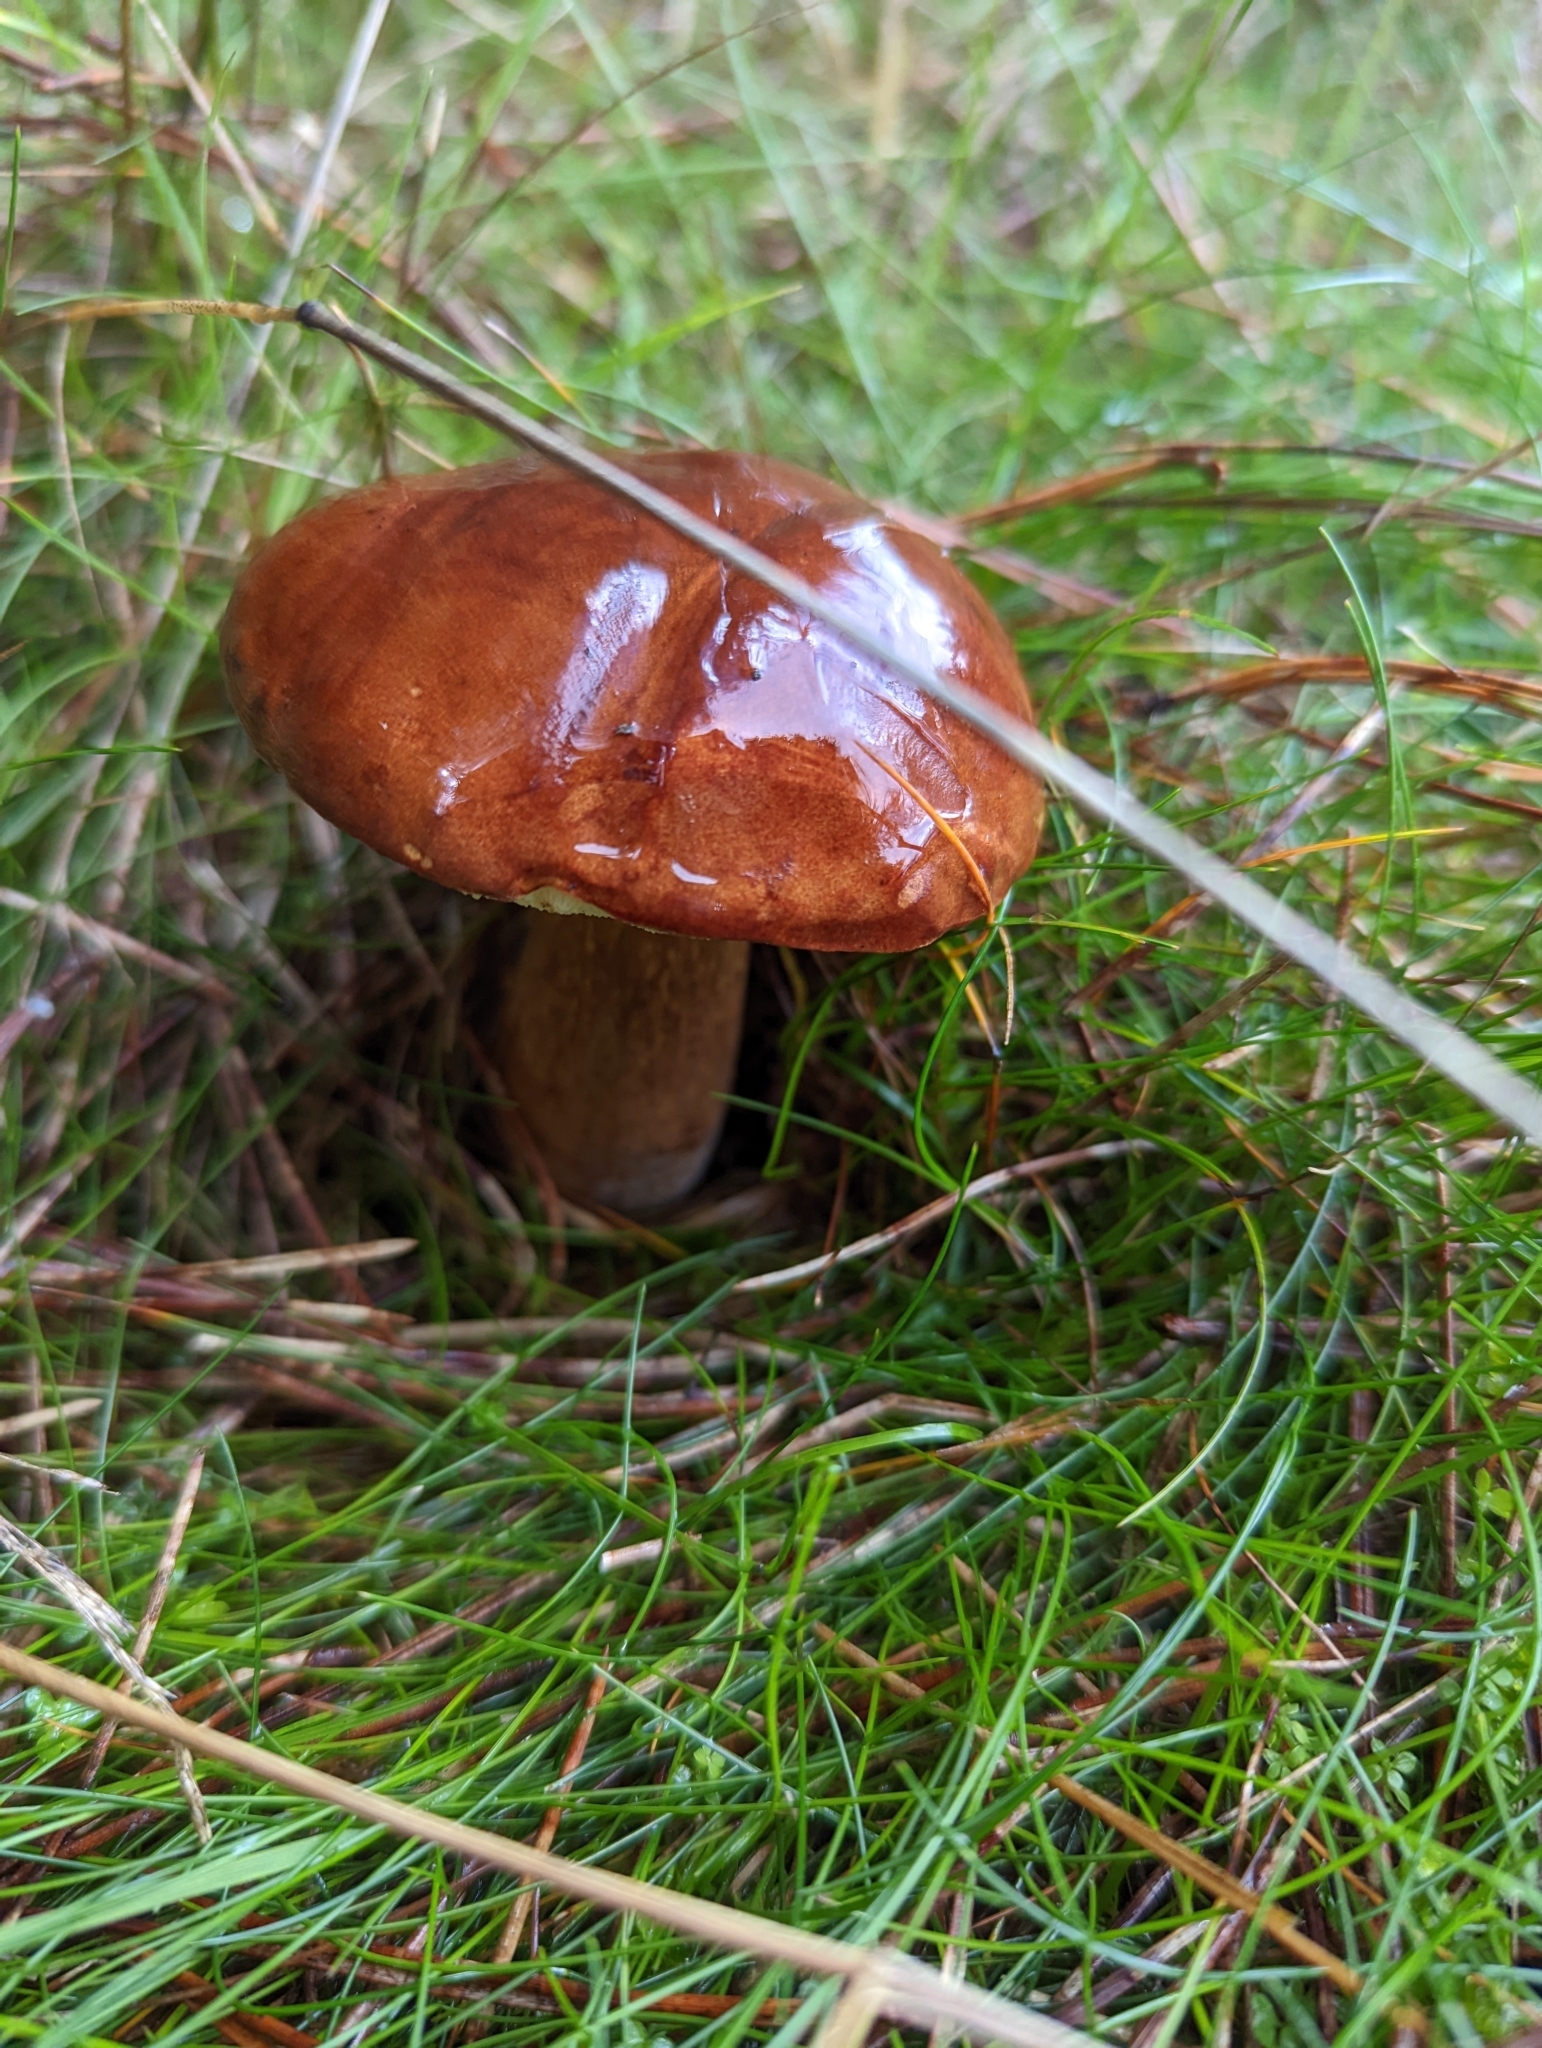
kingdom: Fungi
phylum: Basidiomycota
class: Agaricomycetes
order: Boletales
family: Boletaceae
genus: Imleria
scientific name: Imleria badia
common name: Bay bolete
